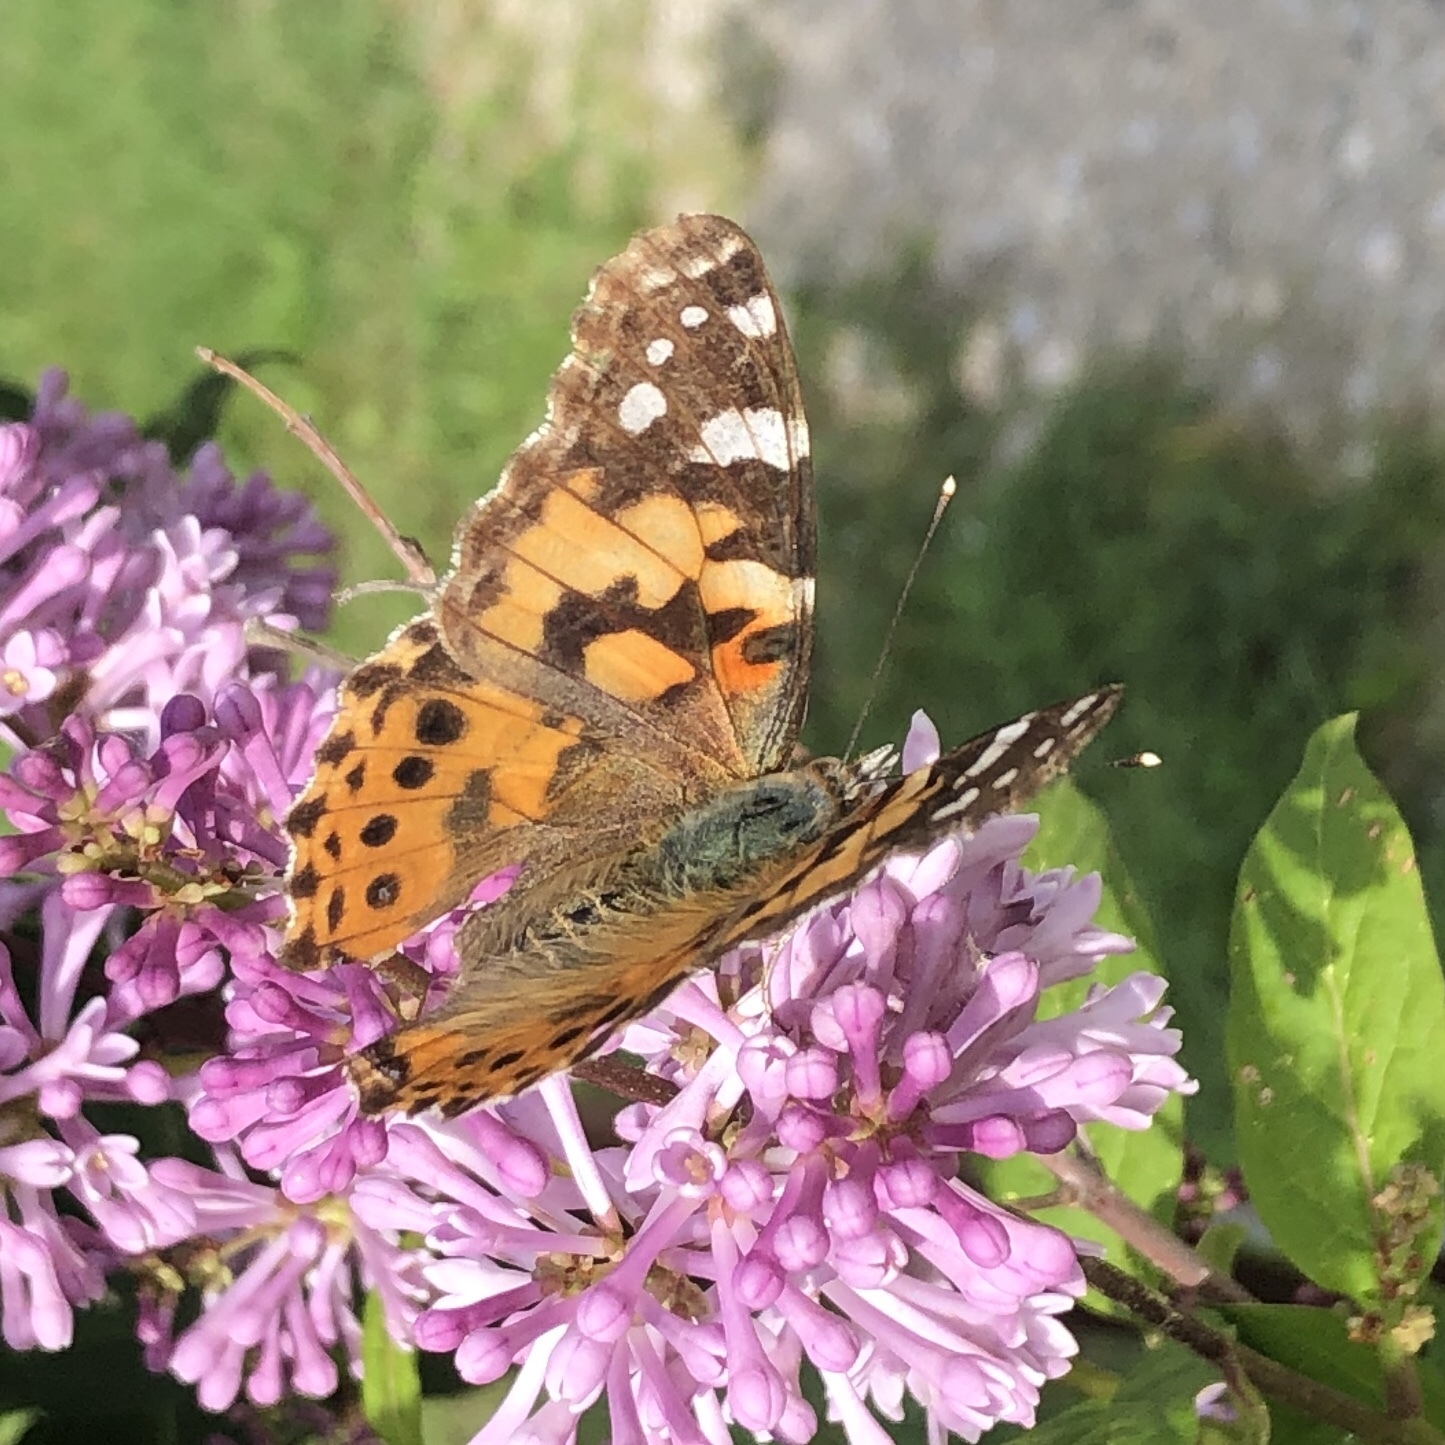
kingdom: Animalia
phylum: Arthropoda
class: Insecta
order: Lepidoptera
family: Nymphalidae
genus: Vanessa
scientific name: Vanessa cardui
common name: Painted lady
